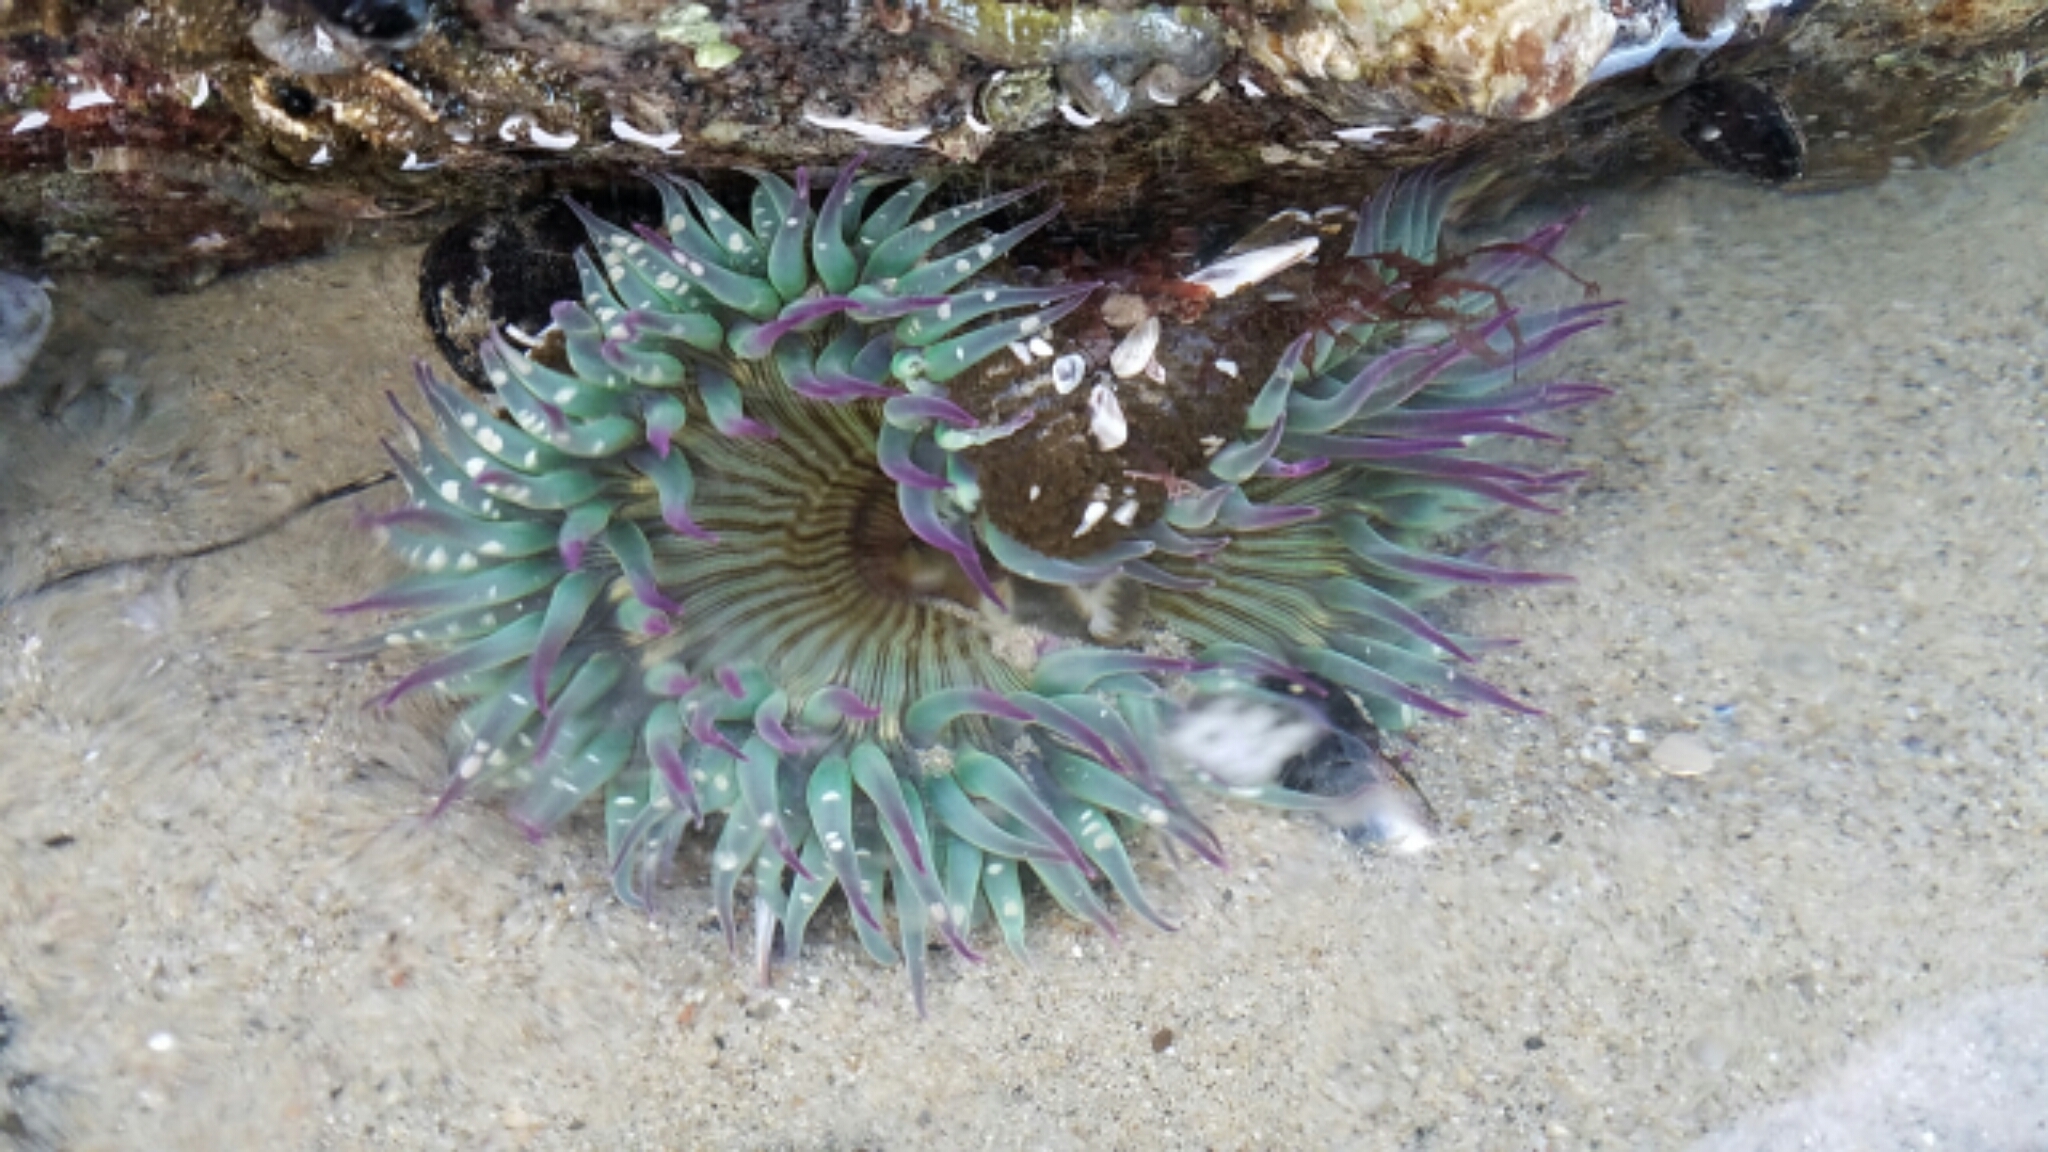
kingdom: Animalia
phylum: Cnidaria
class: Anthozoa
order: Actiniaria
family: Actiniidae
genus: Anthopleura
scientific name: Anthopleura sola
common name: Sun anemone
